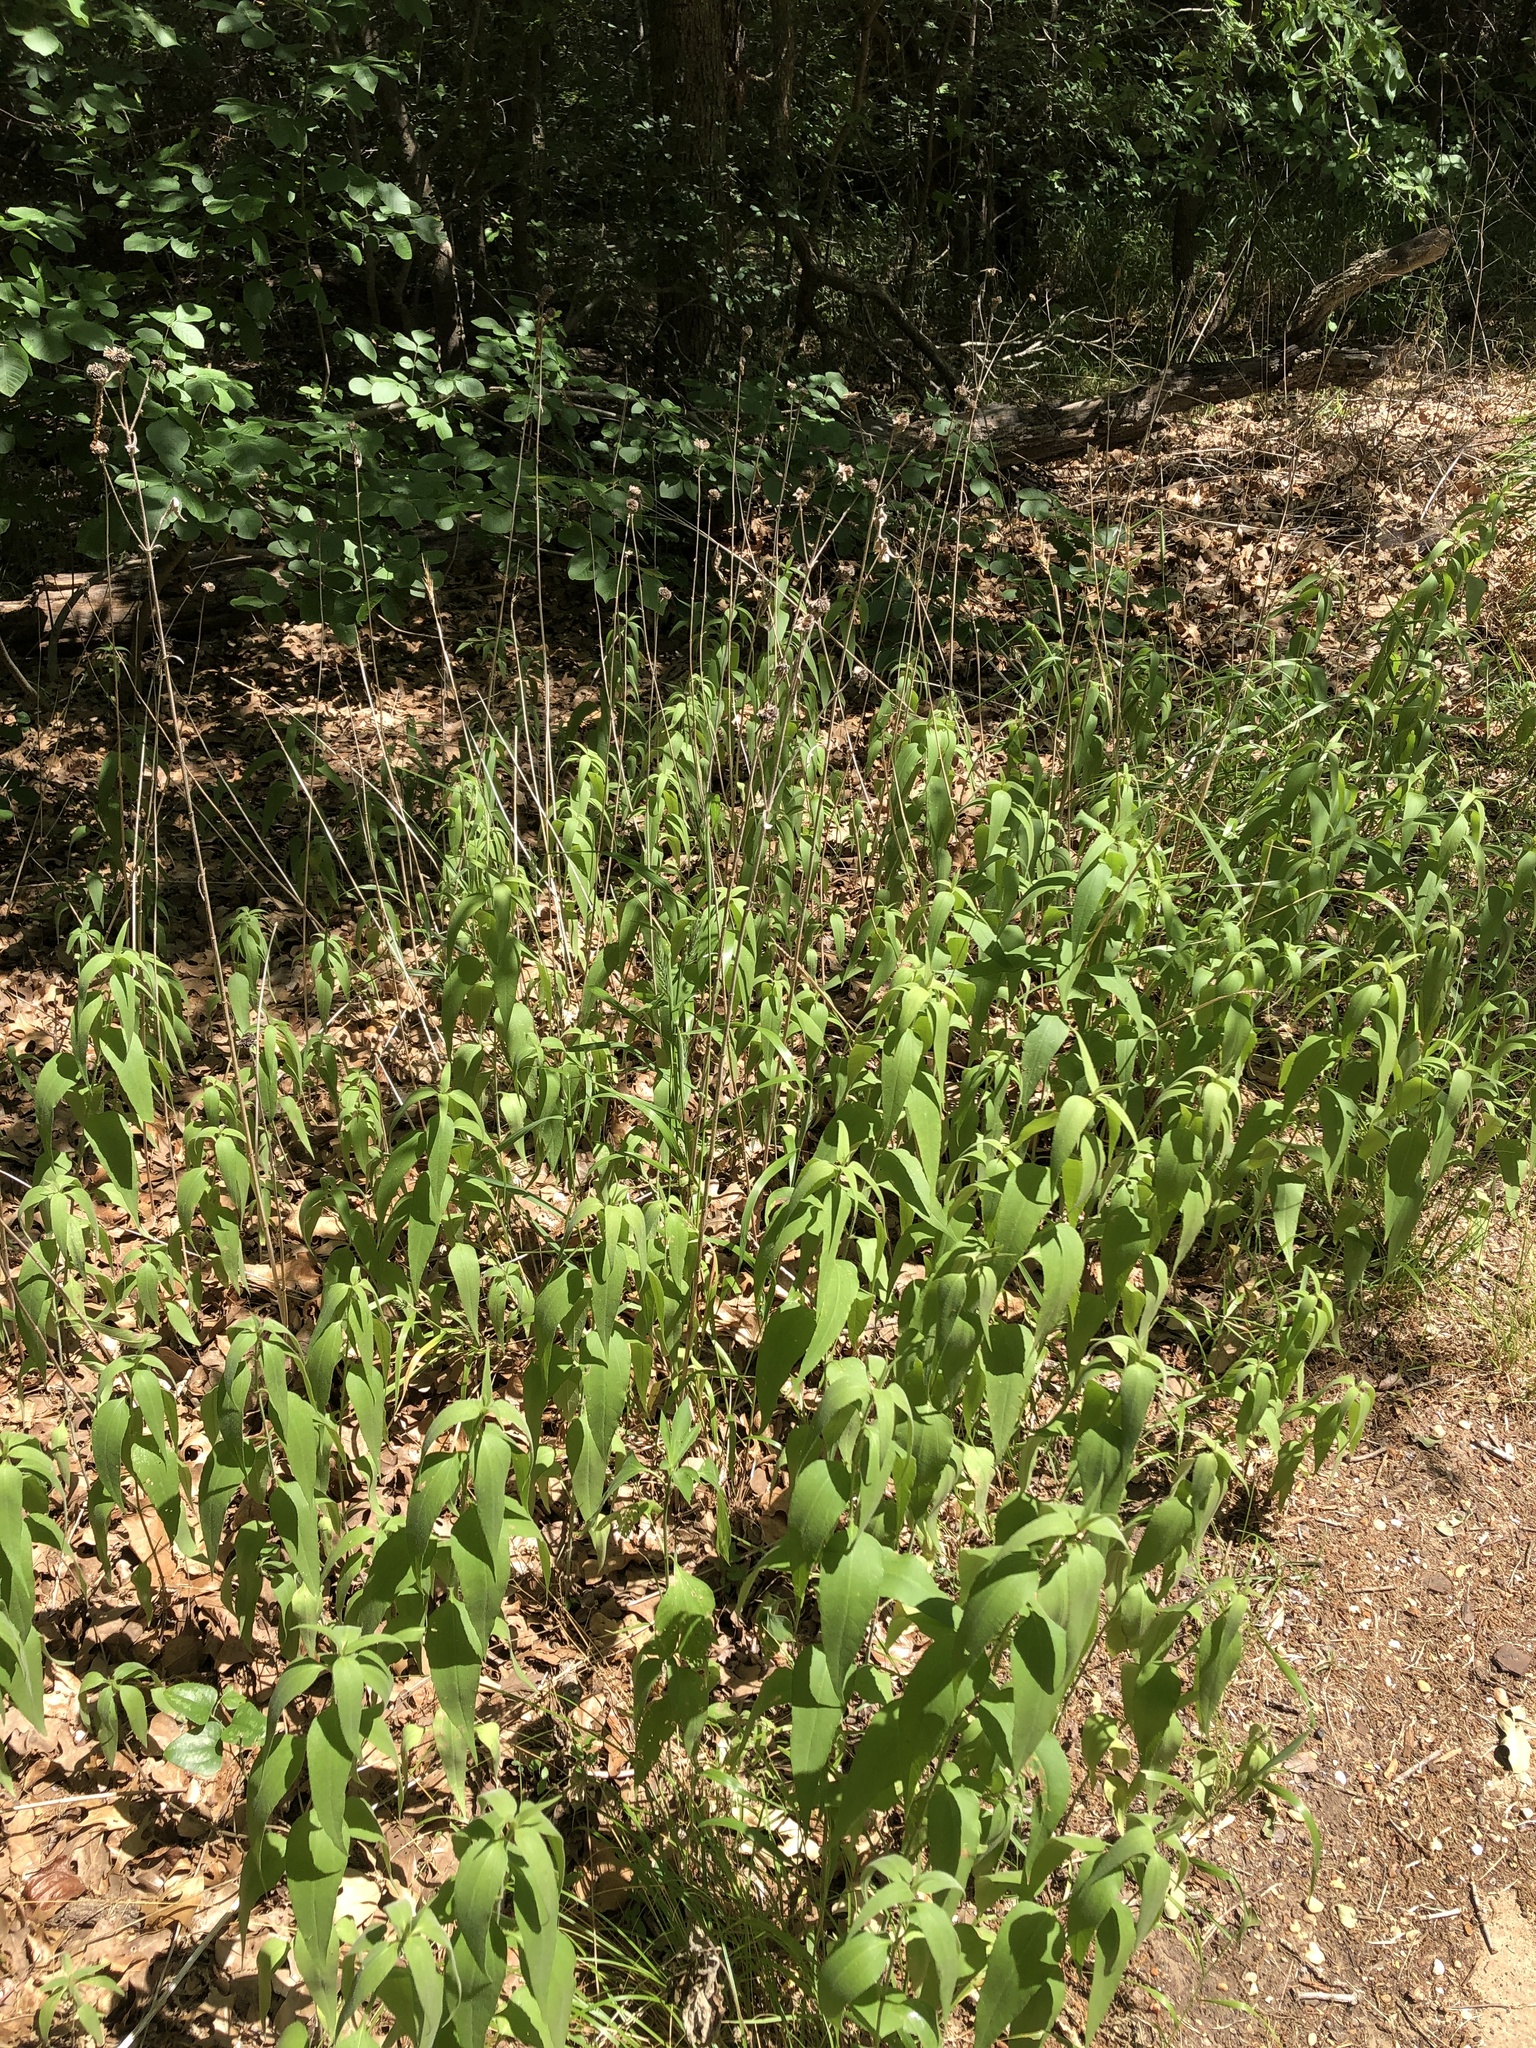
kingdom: Plantae
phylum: Tracheophyta
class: Magnoliopsida
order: Asterales
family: Asteraceae
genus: Helianthus
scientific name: Helianthus hirsutus
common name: Hairy sunflower
